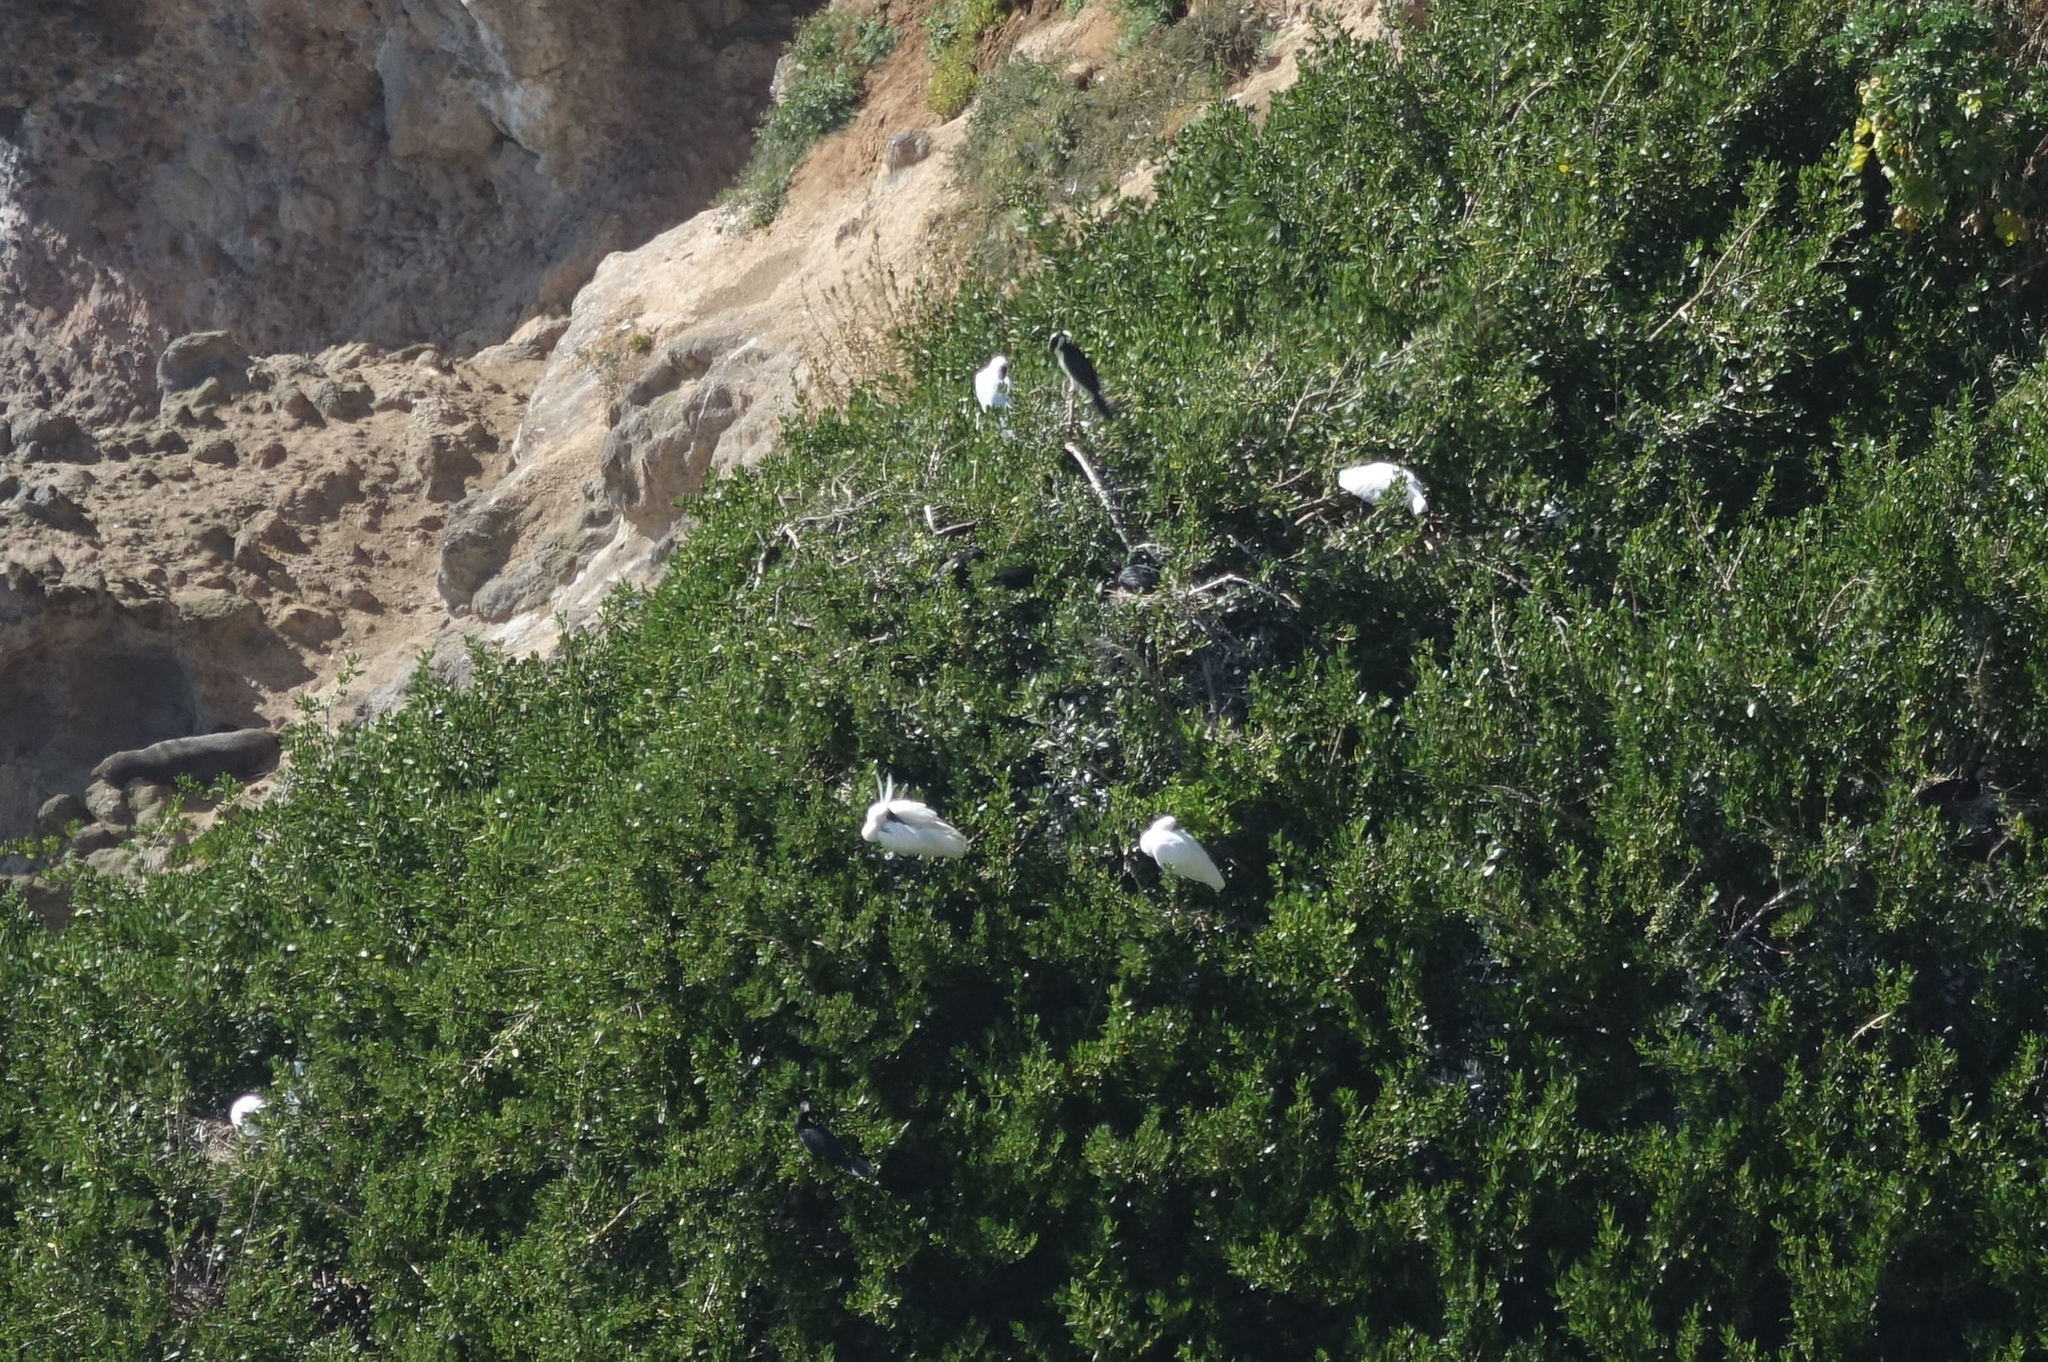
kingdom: Animalia
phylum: Chordata
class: Aves
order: Pelecaniformes
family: Threskiornithidae
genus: Platalea
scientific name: Platalea regia
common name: Royal spoonbill
